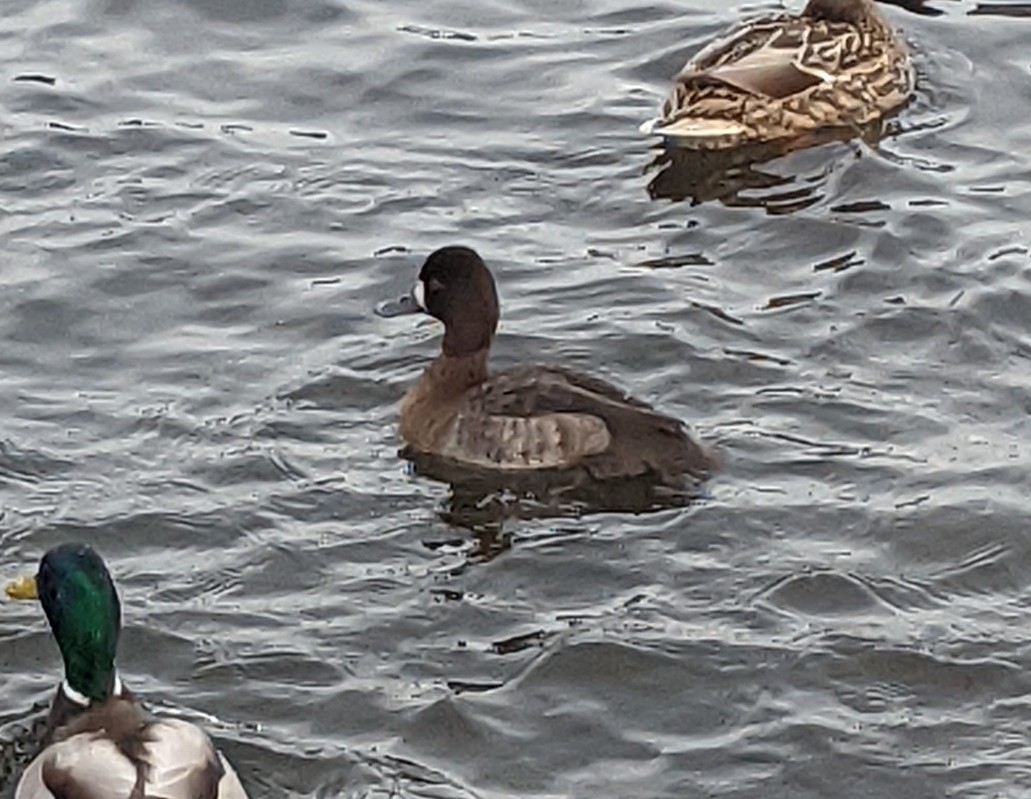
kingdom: Animalia
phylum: Chordata
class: Aves
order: Anseriformes
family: Anatidae
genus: Aythya
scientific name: Aythya affinis
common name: Lesser scaup
